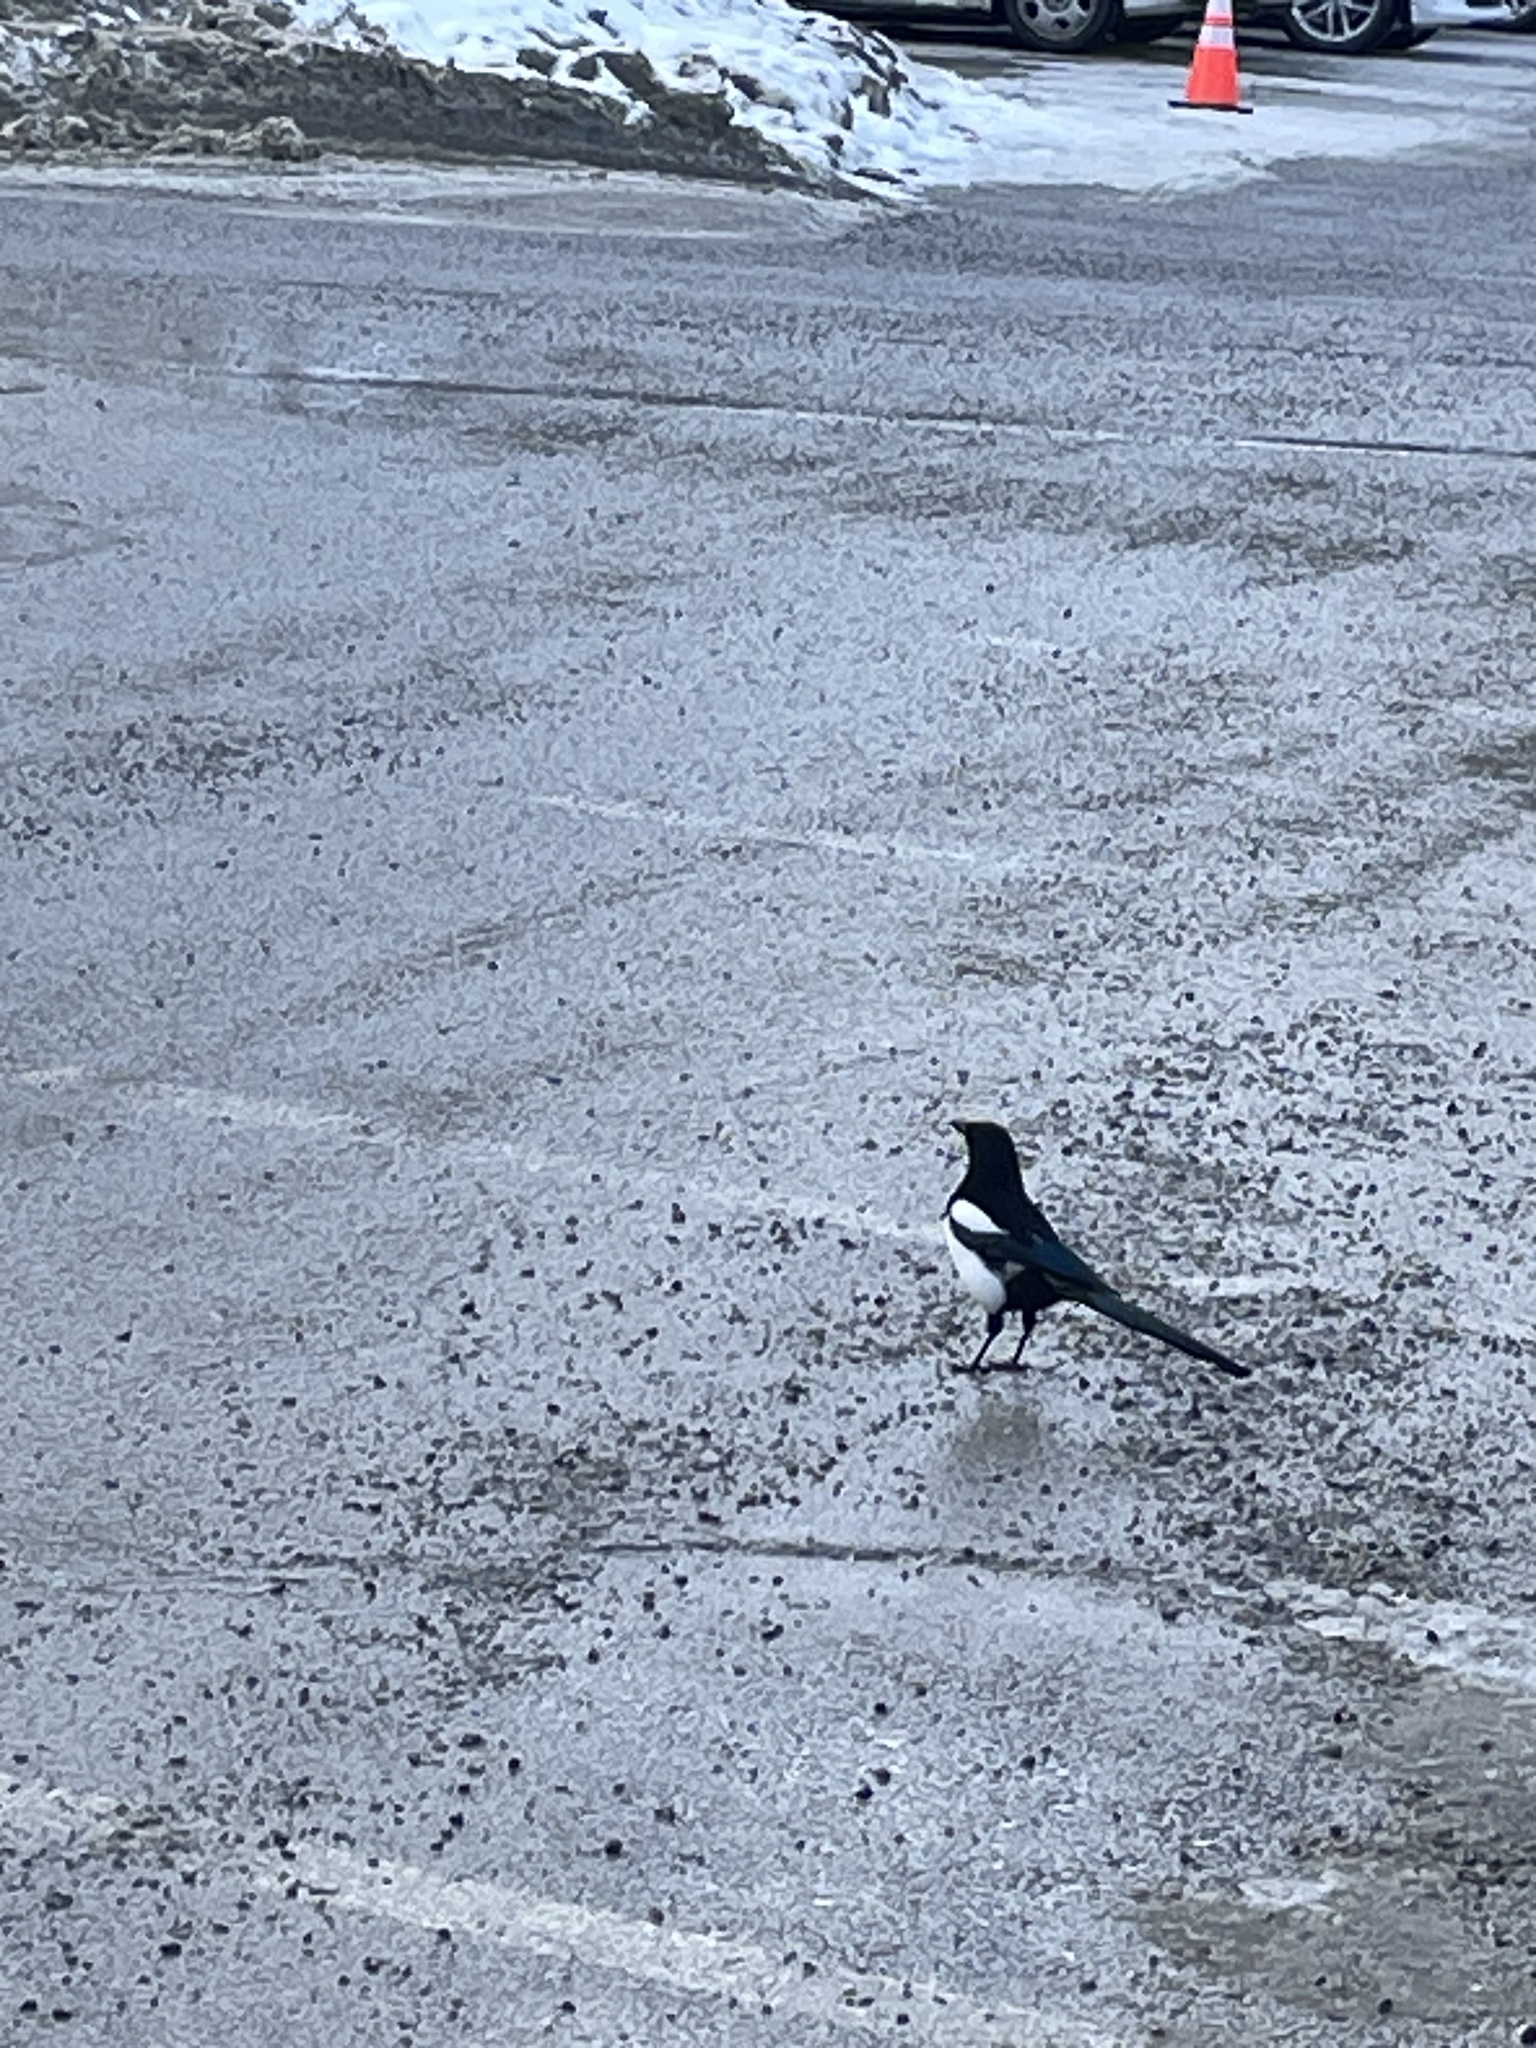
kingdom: Animalia
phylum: Chordata
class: Aves
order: Passeriformes
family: Corvidae
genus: Pica
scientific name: Pica hudsonia
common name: Black-billed magpie
